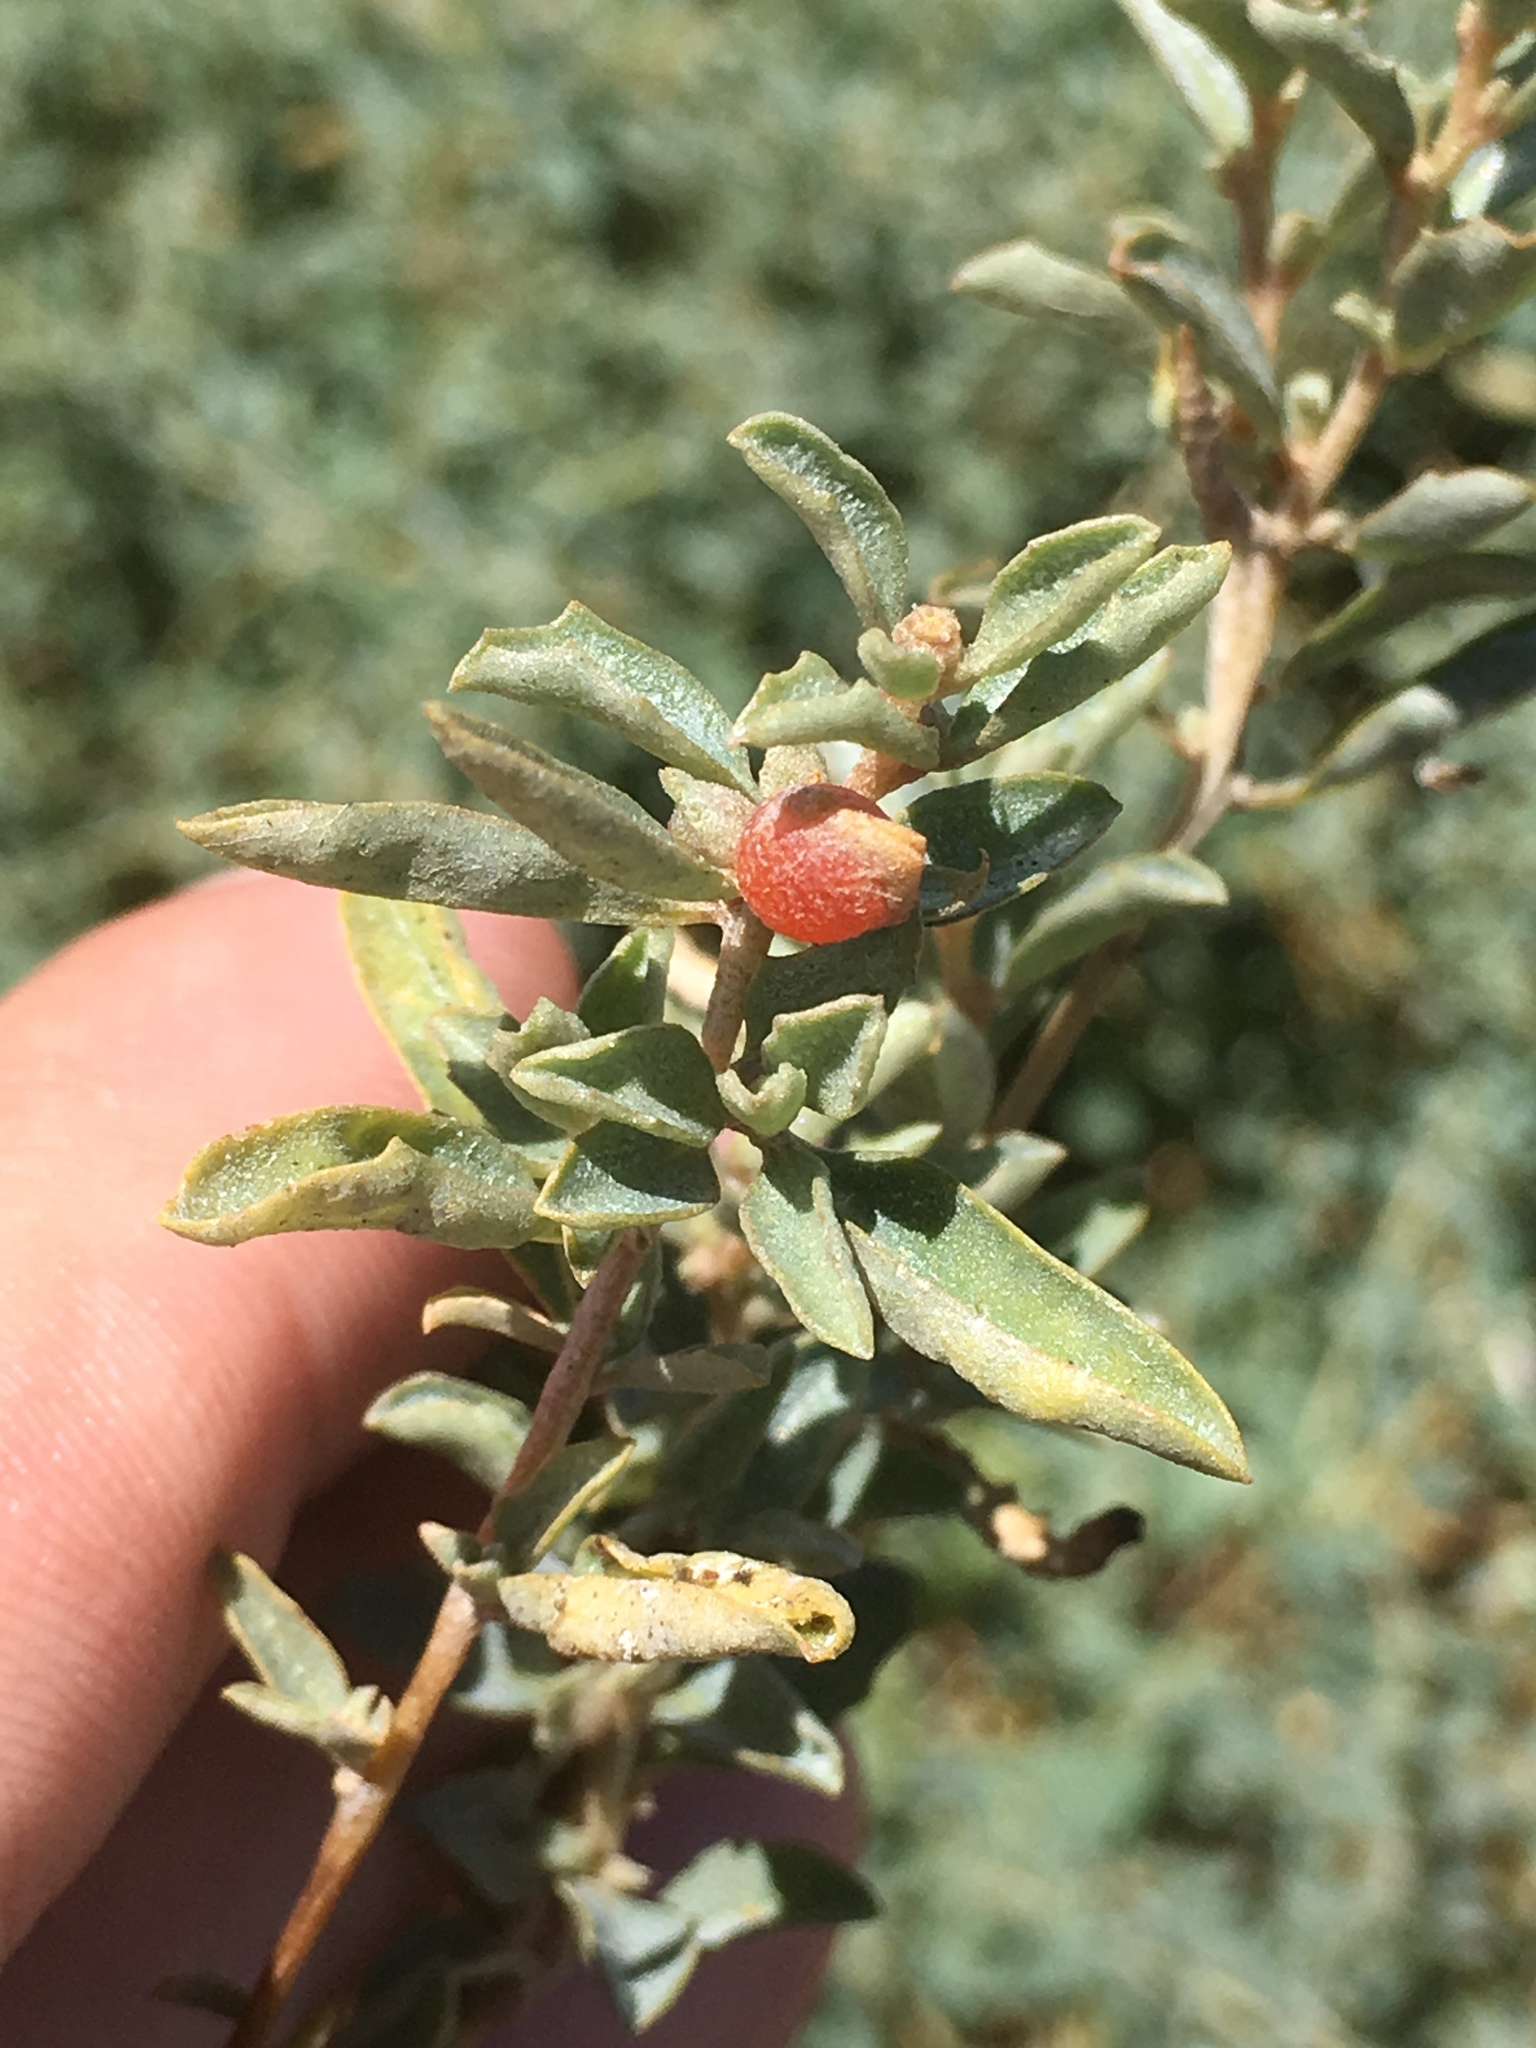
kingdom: Plantae
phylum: Tracheophyta
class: Magnoliopsida
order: Caryophyllales
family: Amaranthaceae
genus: Atriplex
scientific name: Atriplex semibaccata
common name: Australian saltbush
